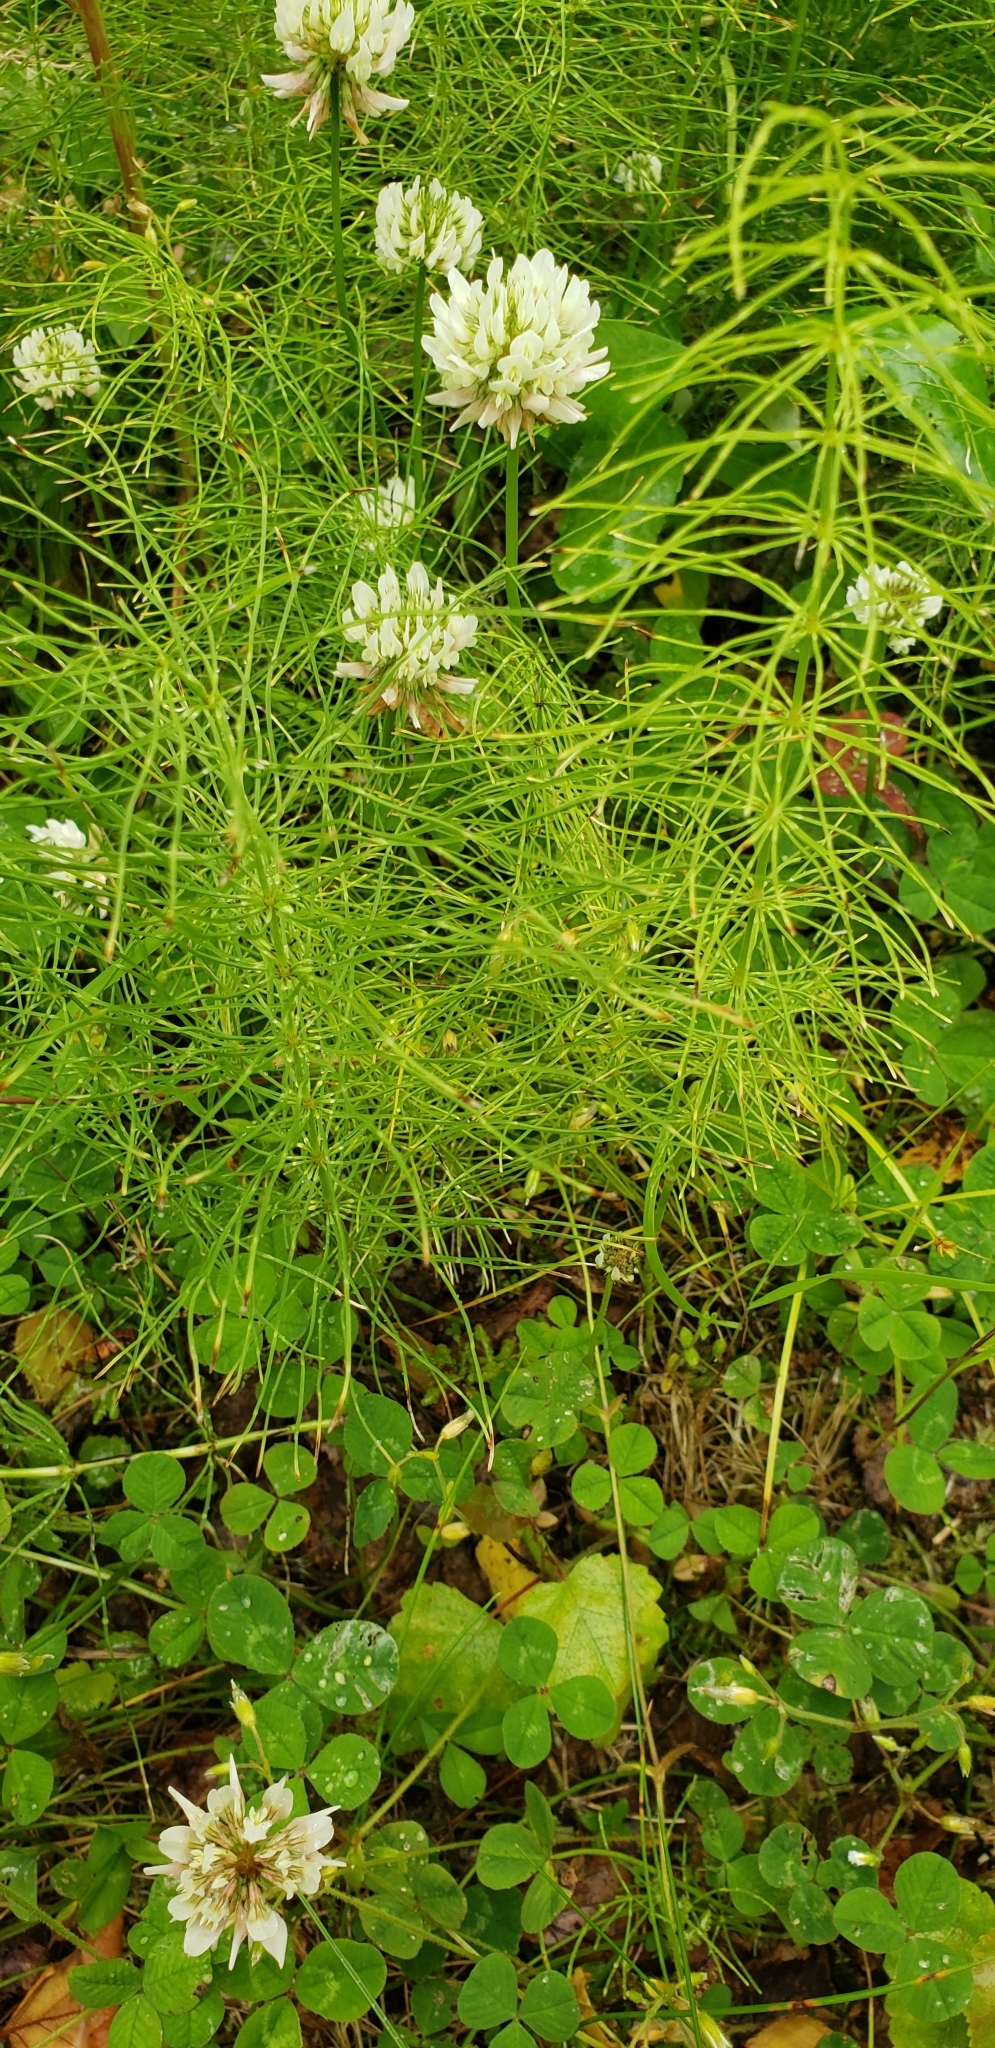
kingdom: Plantae
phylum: Tracheophyta
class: Polypodiopsida
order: Equisetales
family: Equisetaceae
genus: Equisetum
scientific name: Equisetum arvense
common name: Field horsetail
